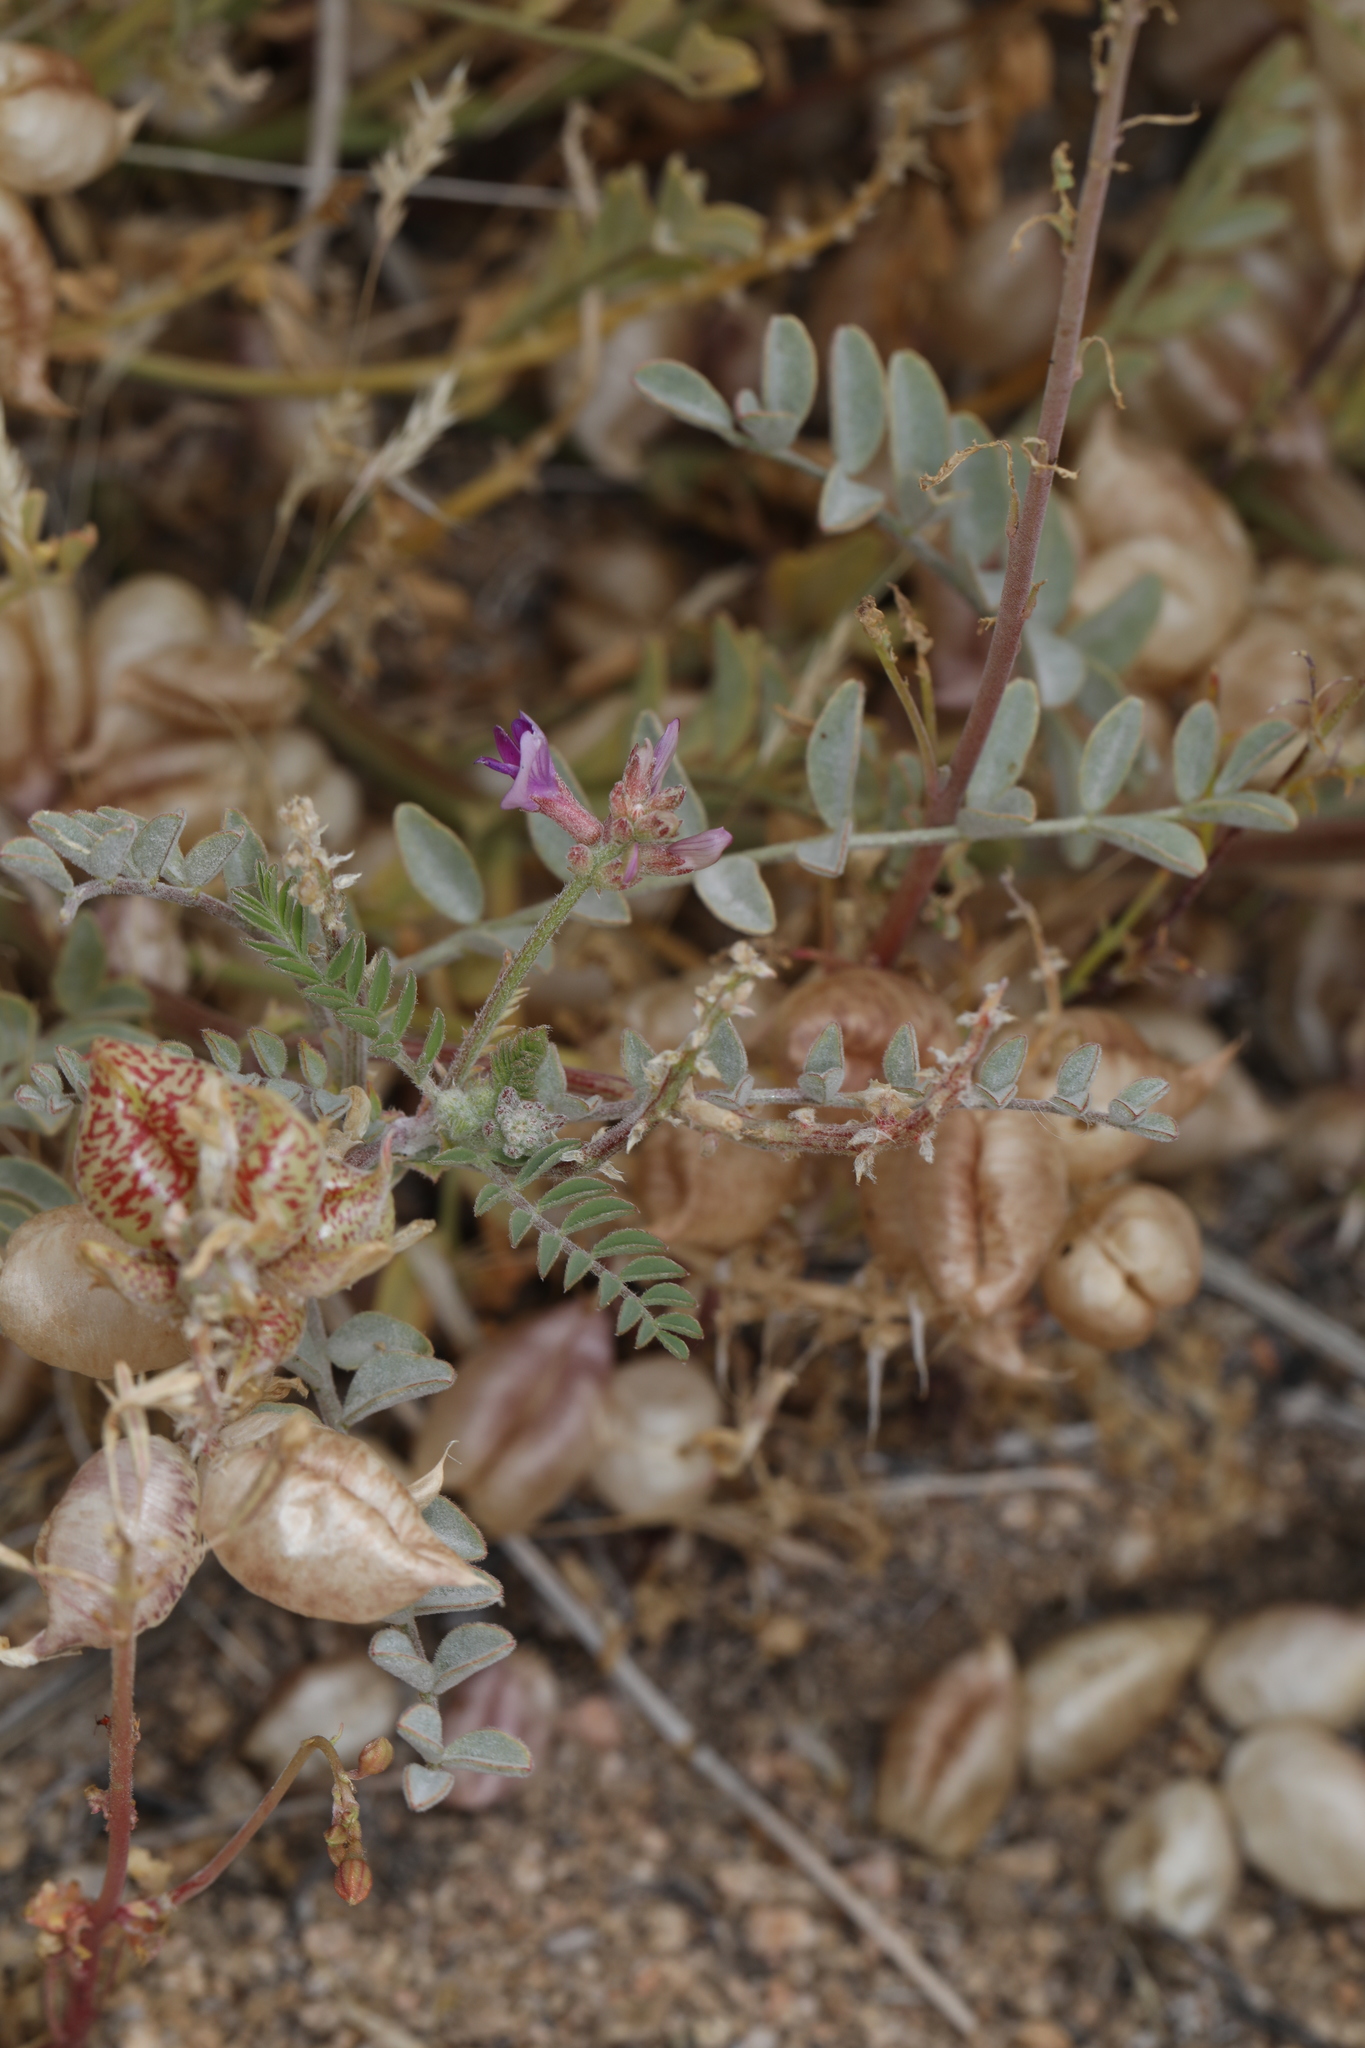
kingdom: Plantae
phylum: Tracheophyta
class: Magnoliopsida
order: Fabales
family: Fabaceae
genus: Astragalus
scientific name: Astragalus lentiginosus
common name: Freckled milkvetch
